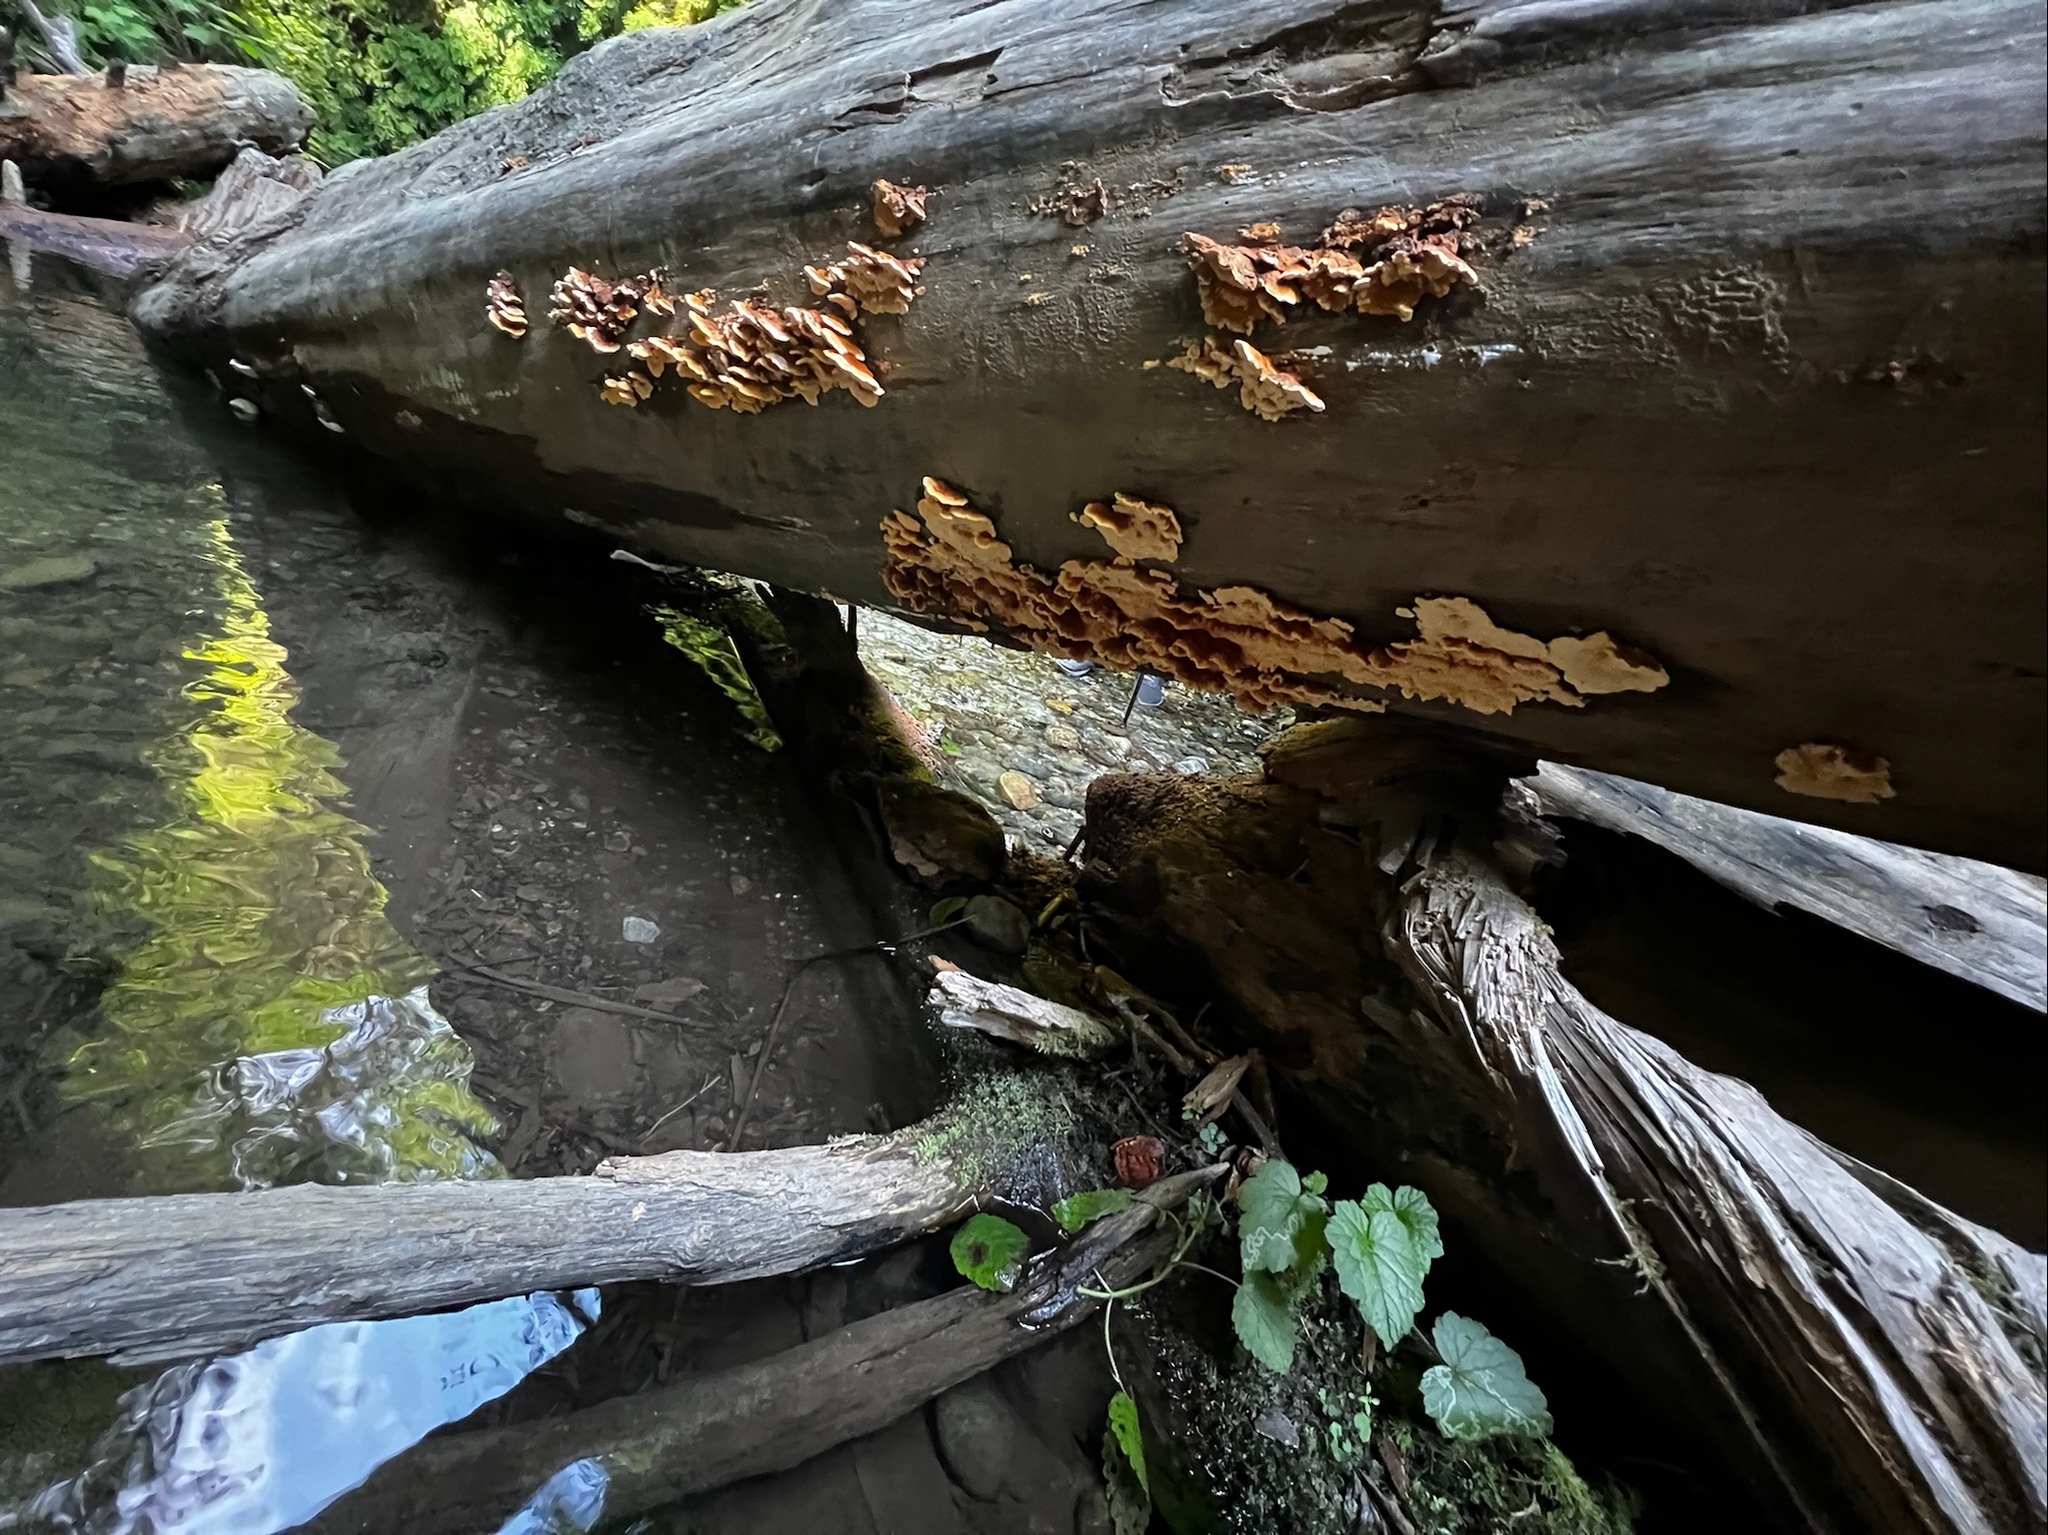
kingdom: Fungi
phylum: Basidiomycota
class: Agaricomycetes
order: Polyporales
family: Pycnoporellaceae
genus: Pycnoporellus
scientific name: Pycnoporellus fulgens
